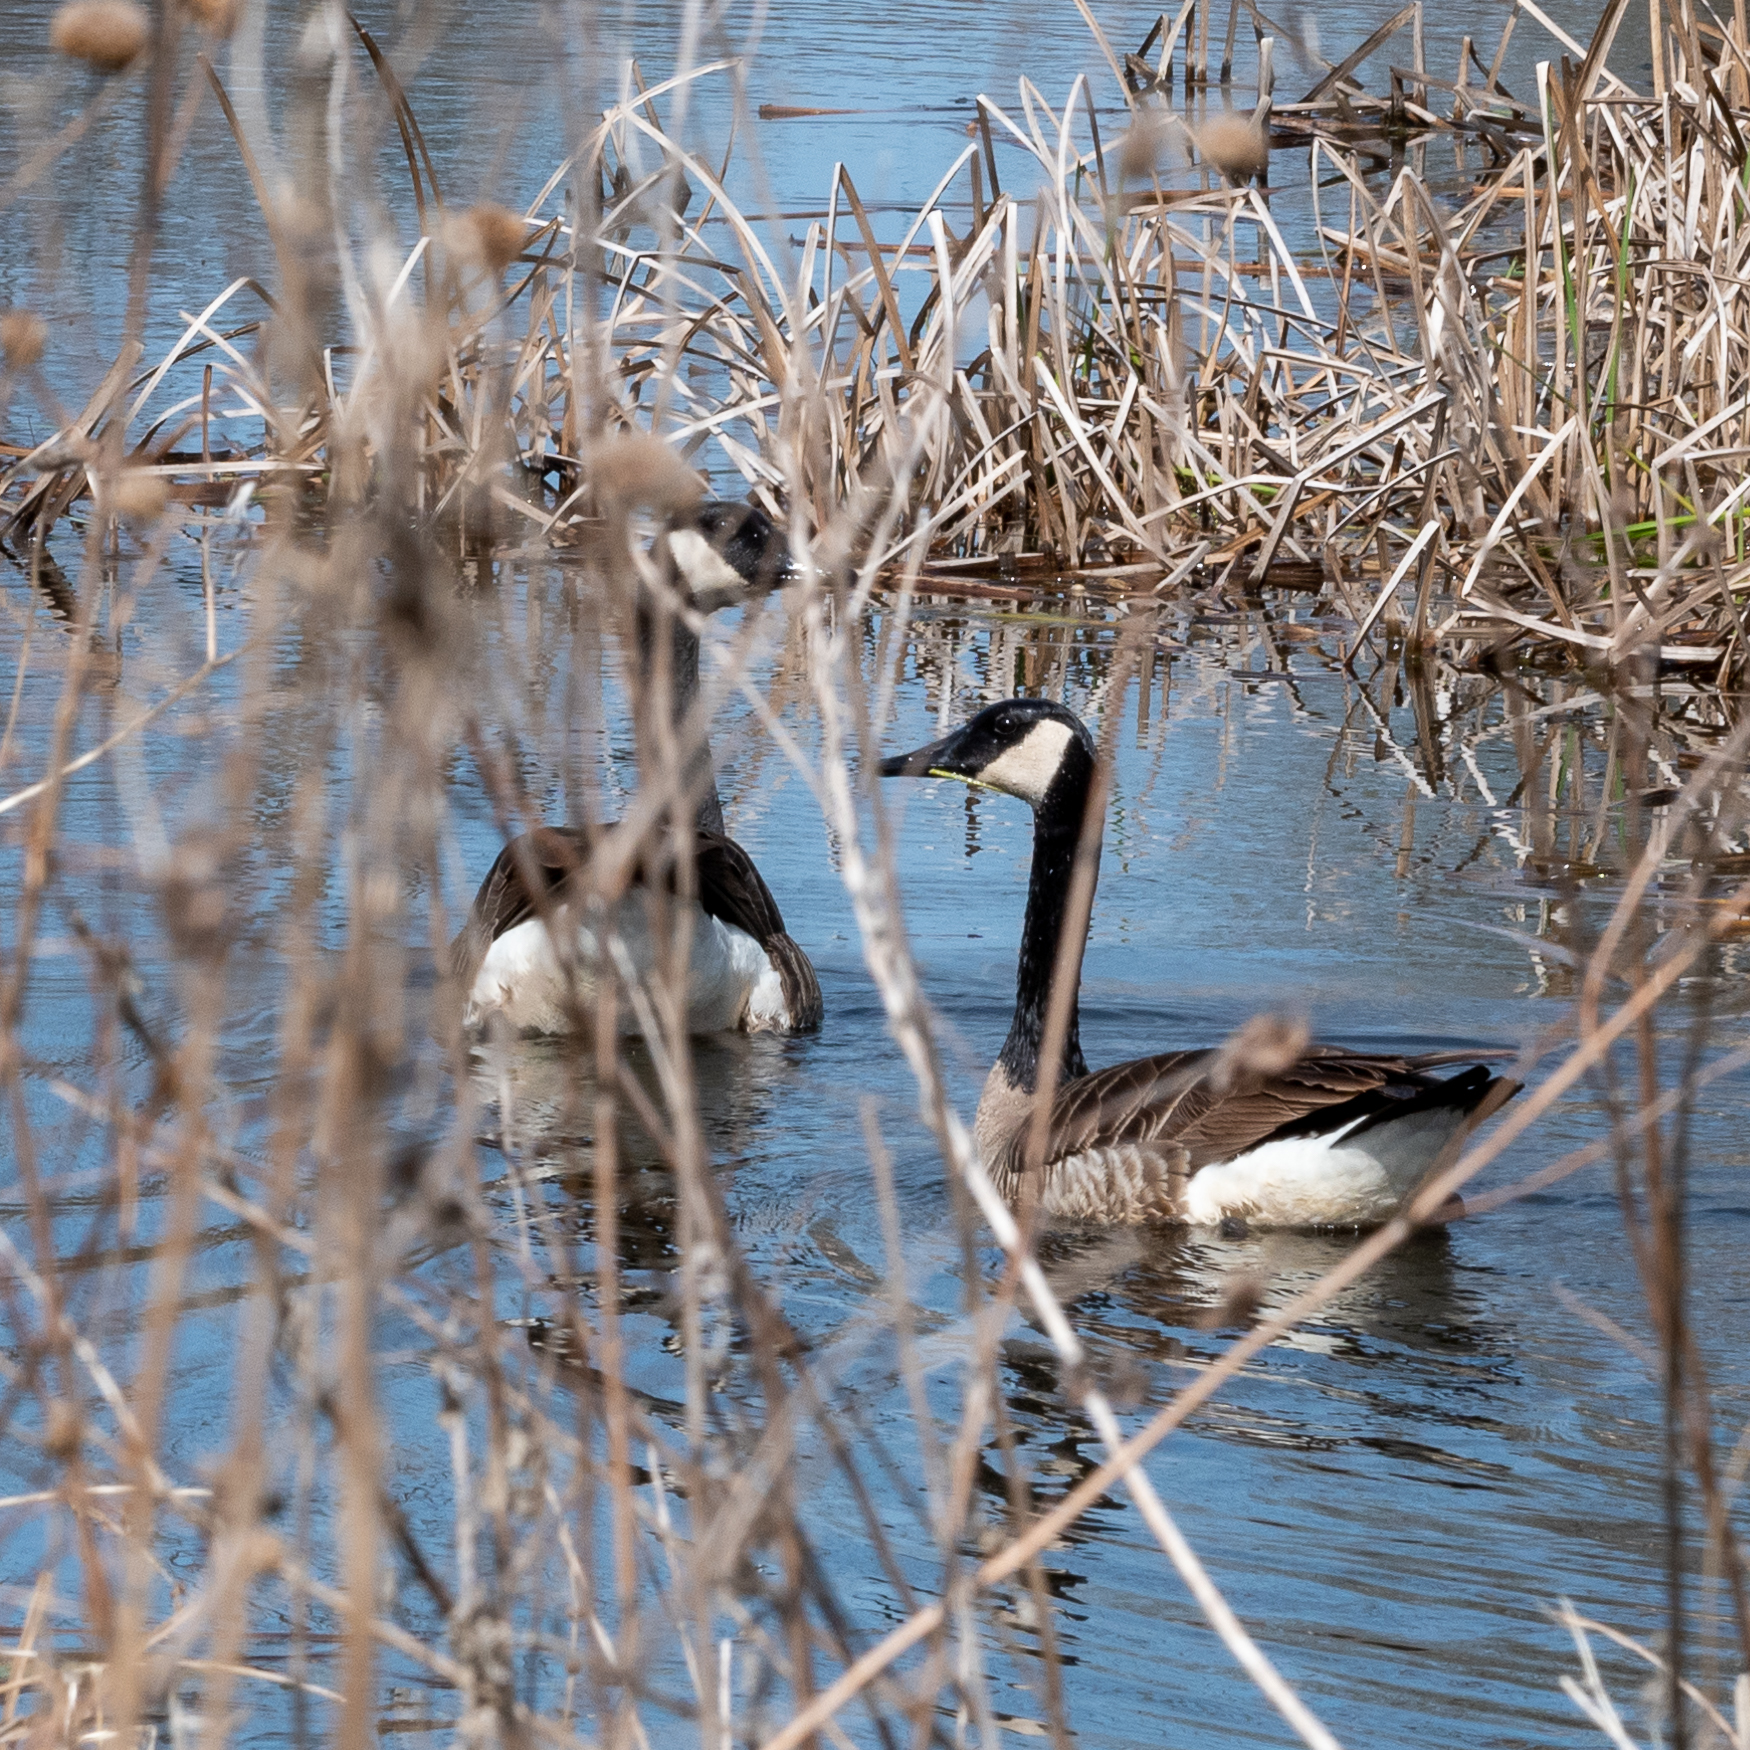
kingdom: Animalia
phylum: Chordata
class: Aves
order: Anseriformes
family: Anatidae
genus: Branta
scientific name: Branta canadensis
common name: Canada goose
